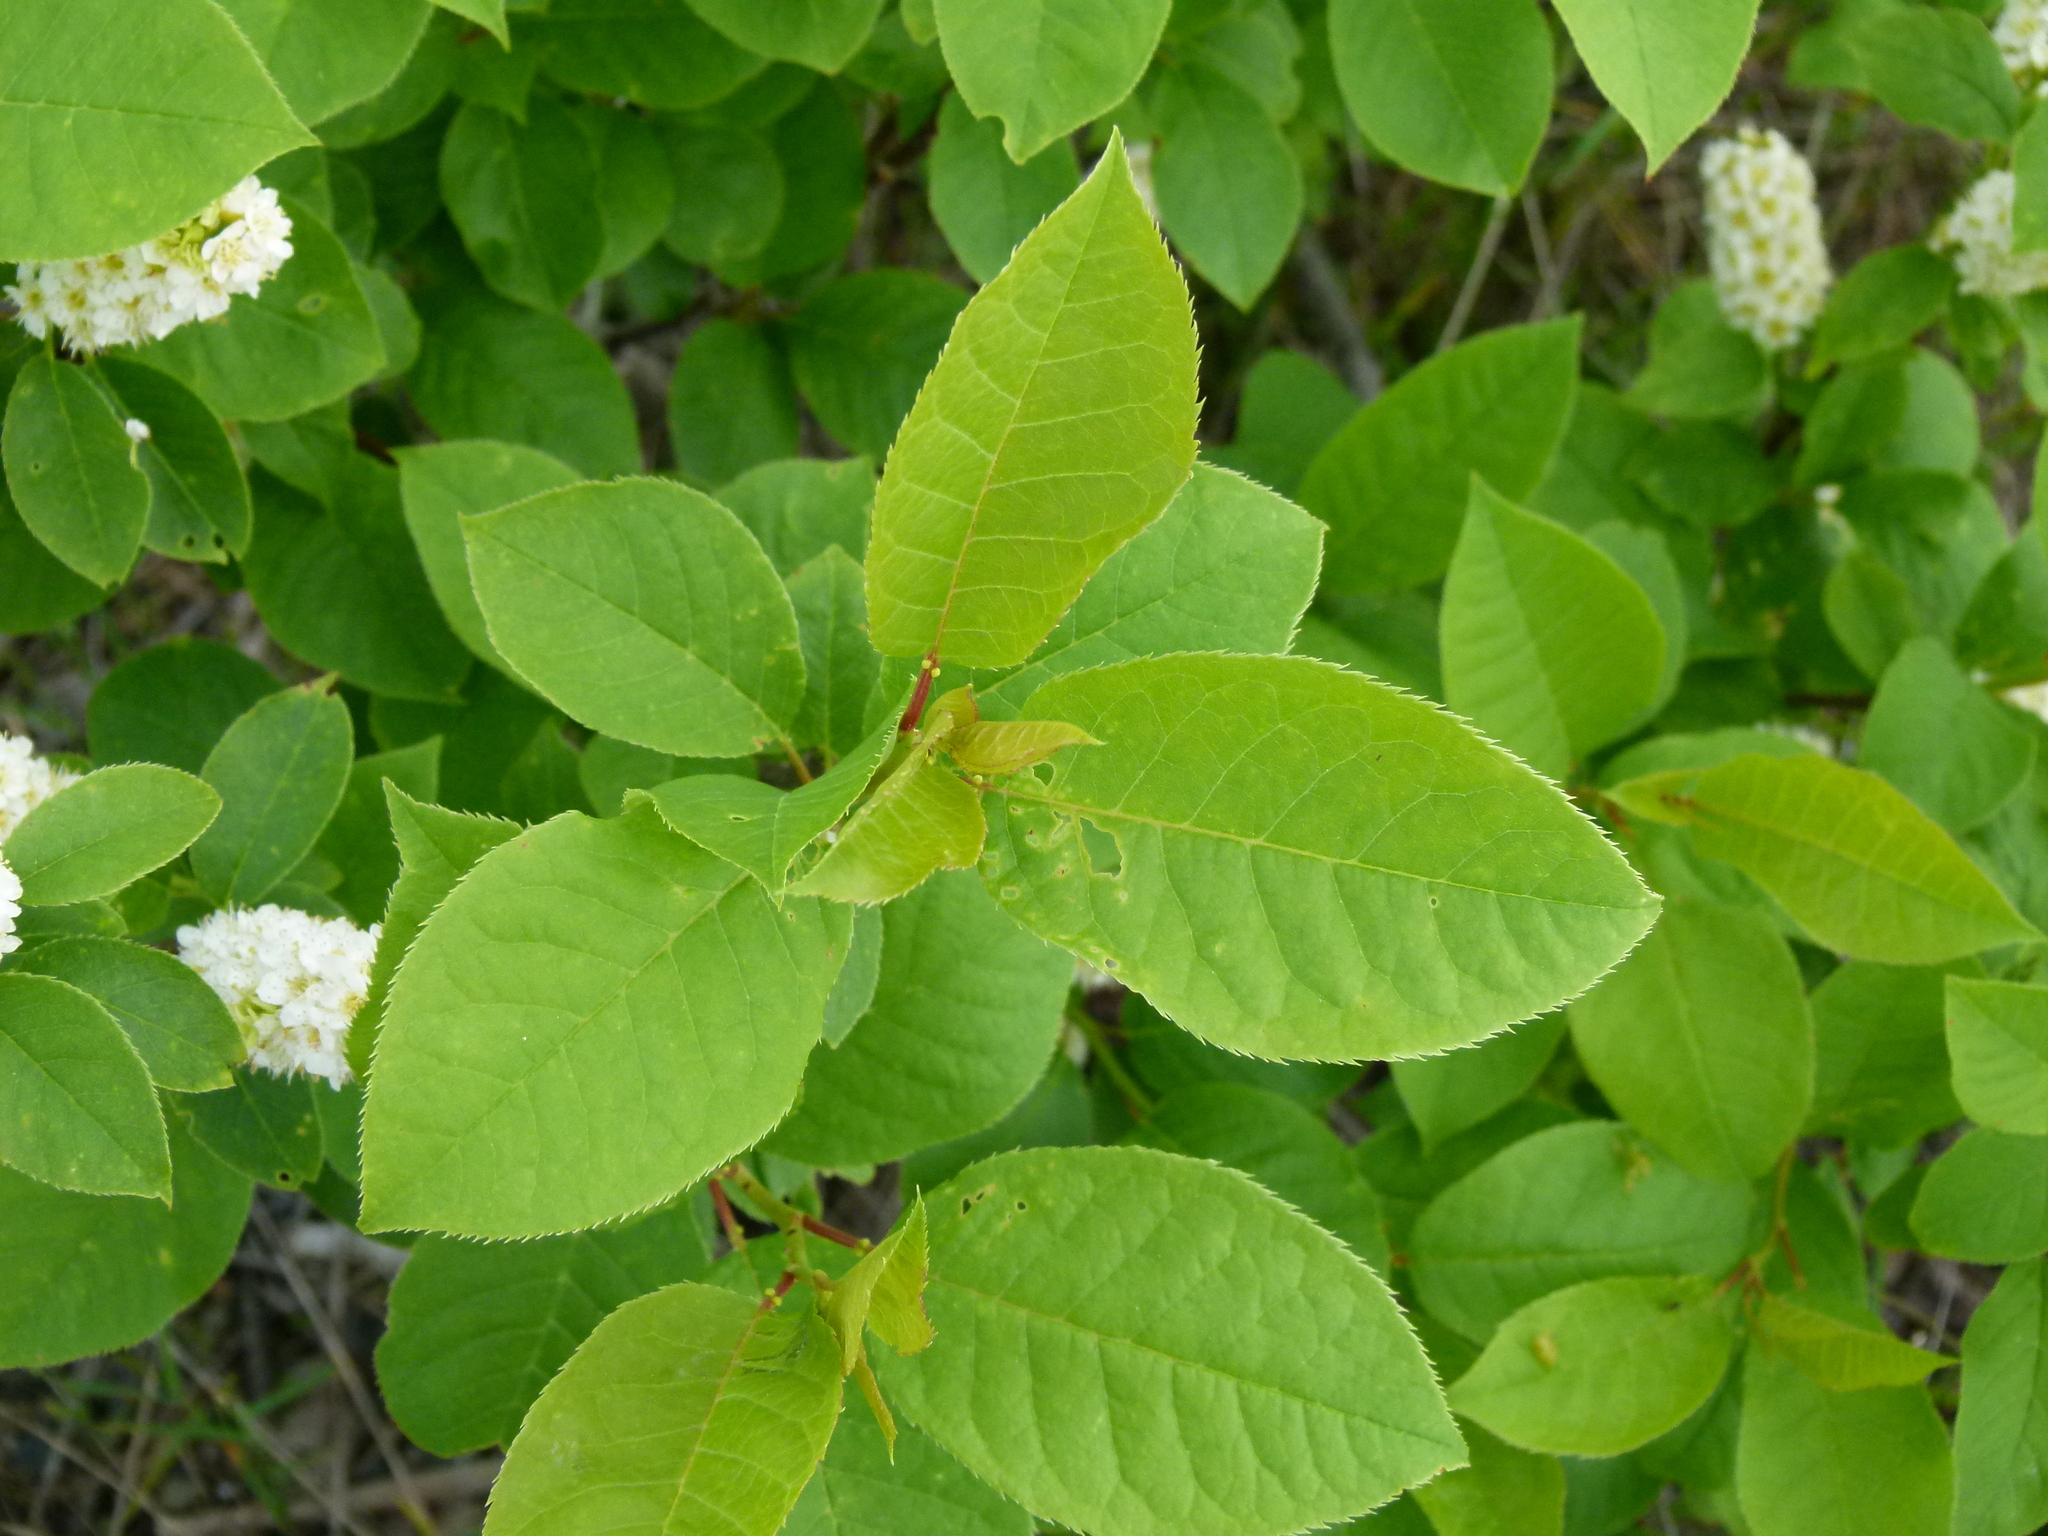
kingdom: Plantae
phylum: Tracheophyta
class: Magnoliopsida
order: Rosales
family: Rosaceae
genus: Prunus
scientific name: Prunus virginiana
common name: Chokecherry
